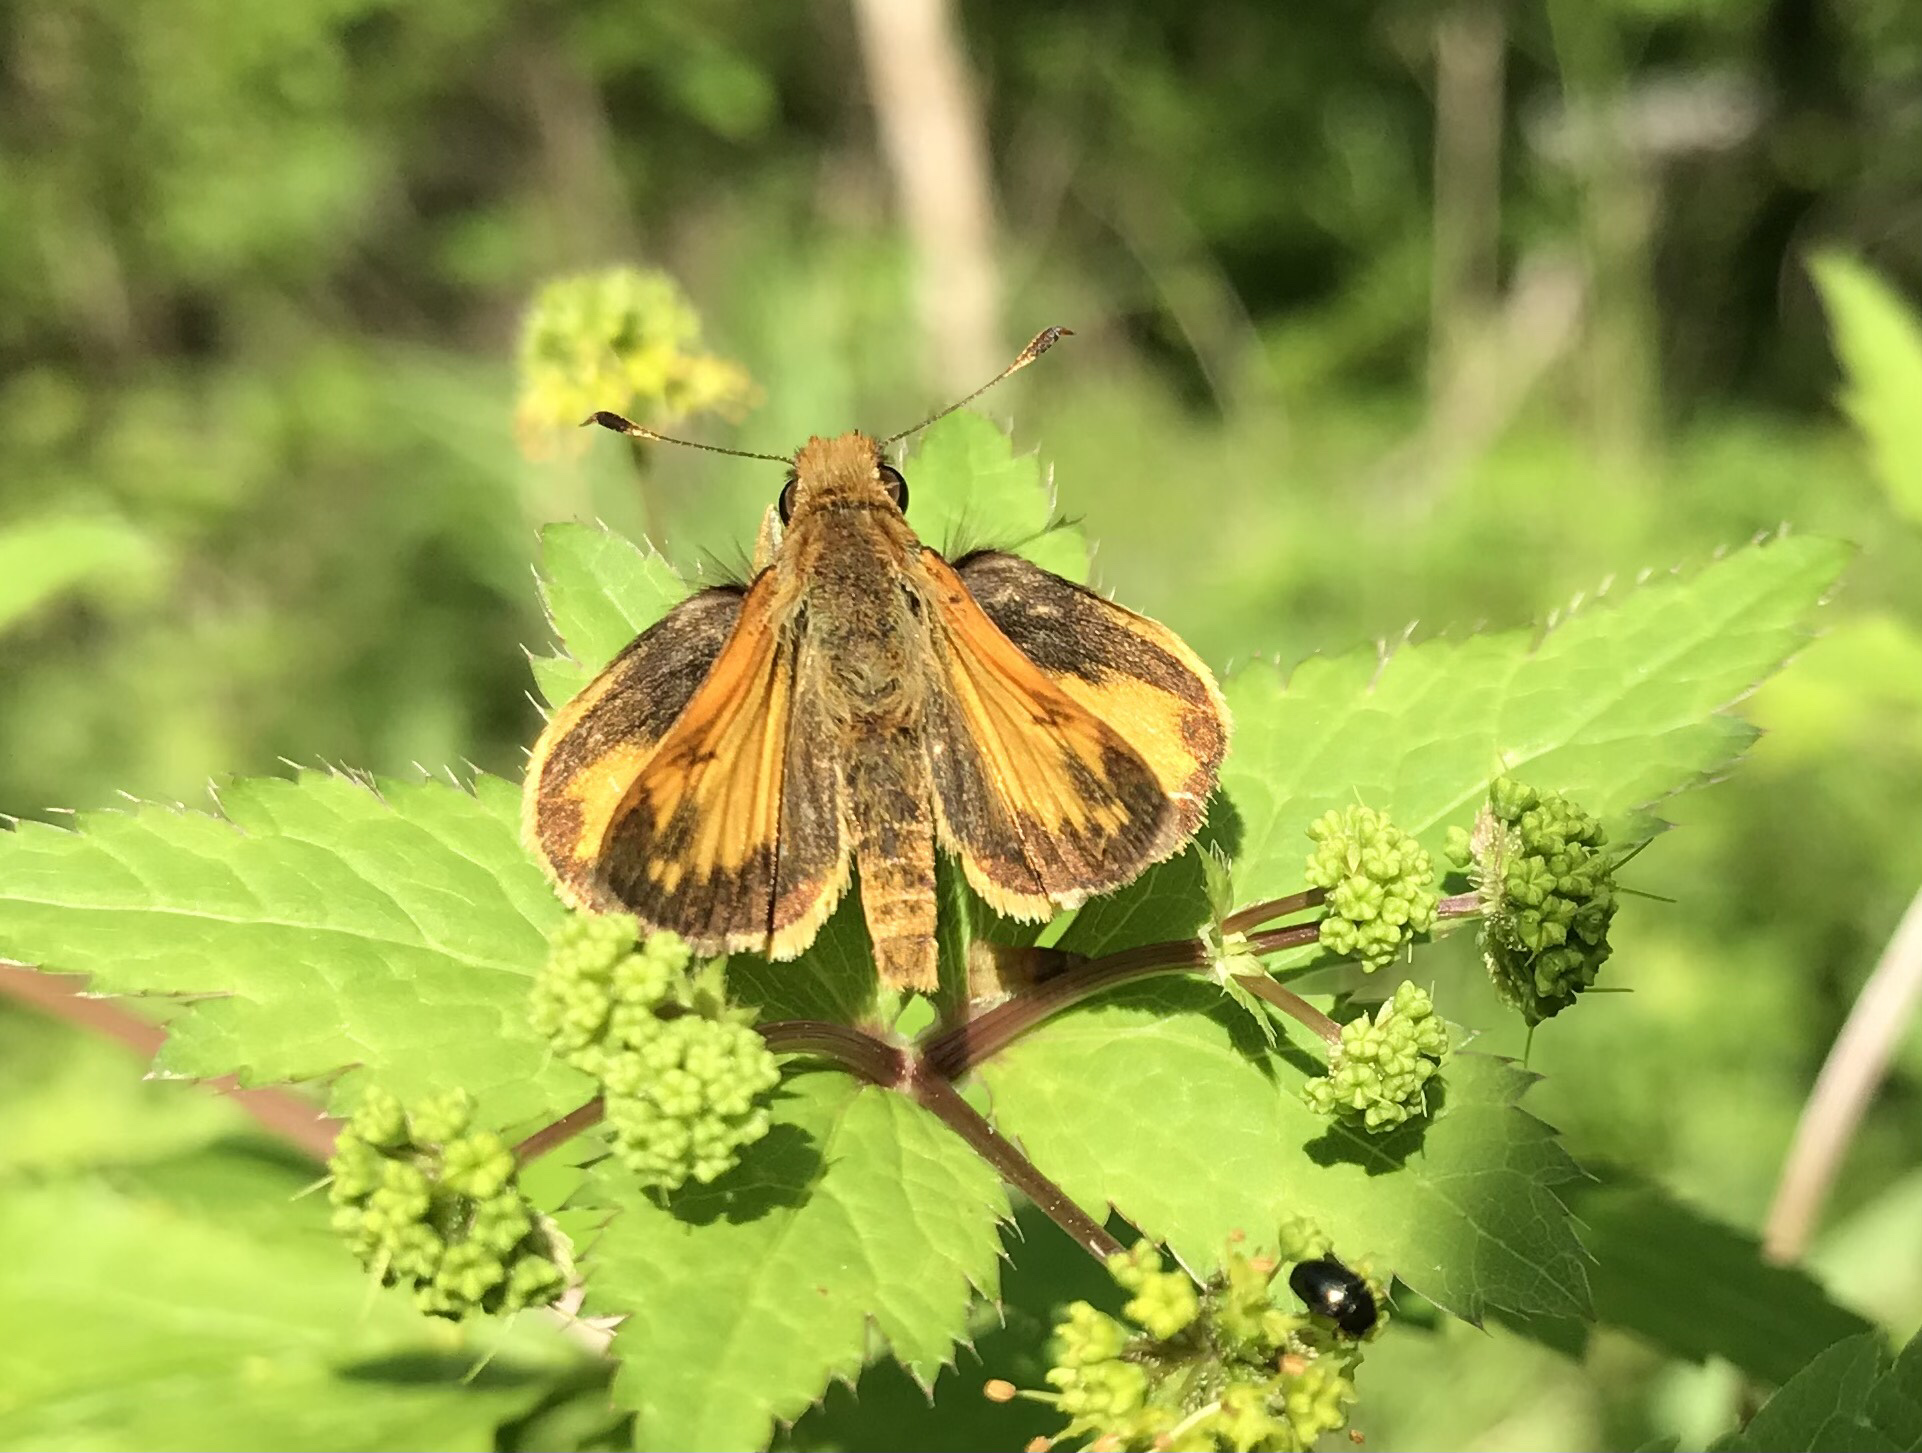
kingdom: Animalia
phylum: Arthropoda
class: Insecta
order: Lepidoptera
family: Hesperiidae
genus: Lon
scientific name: Lon zabulon
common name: Zabulon skipper
